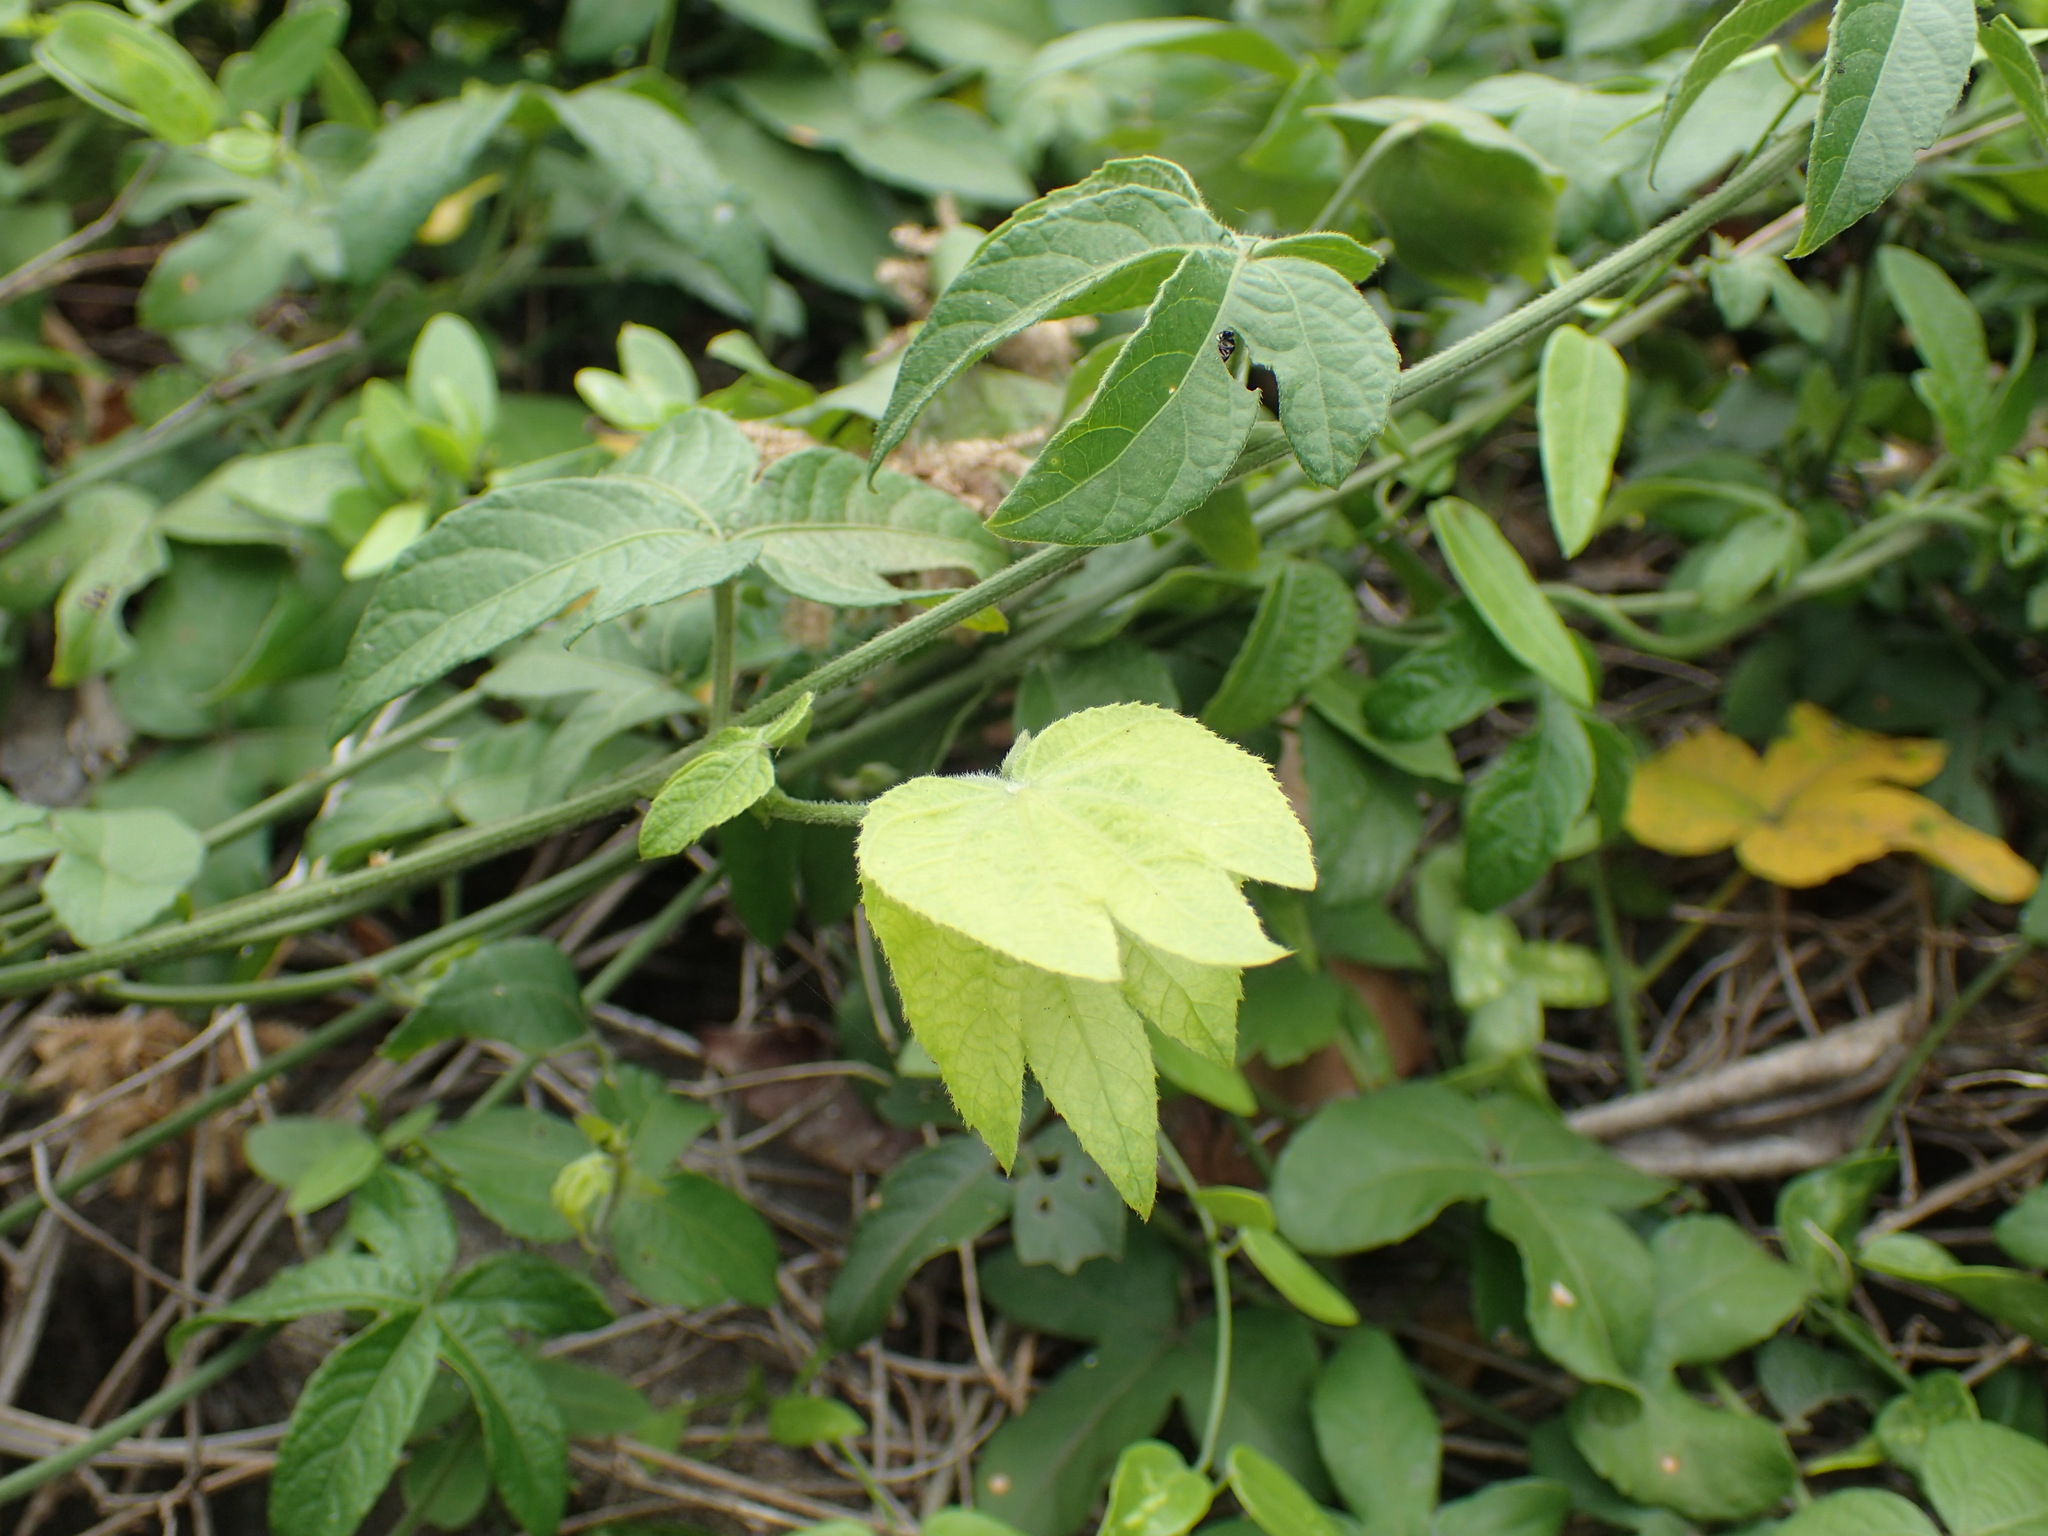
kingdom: Plantae
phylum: Tracheophyta
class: Magnoliopsida
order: Malpighiales
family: Euphorbiaceae
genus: Dalechampia
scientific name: Dalechampia capensis
